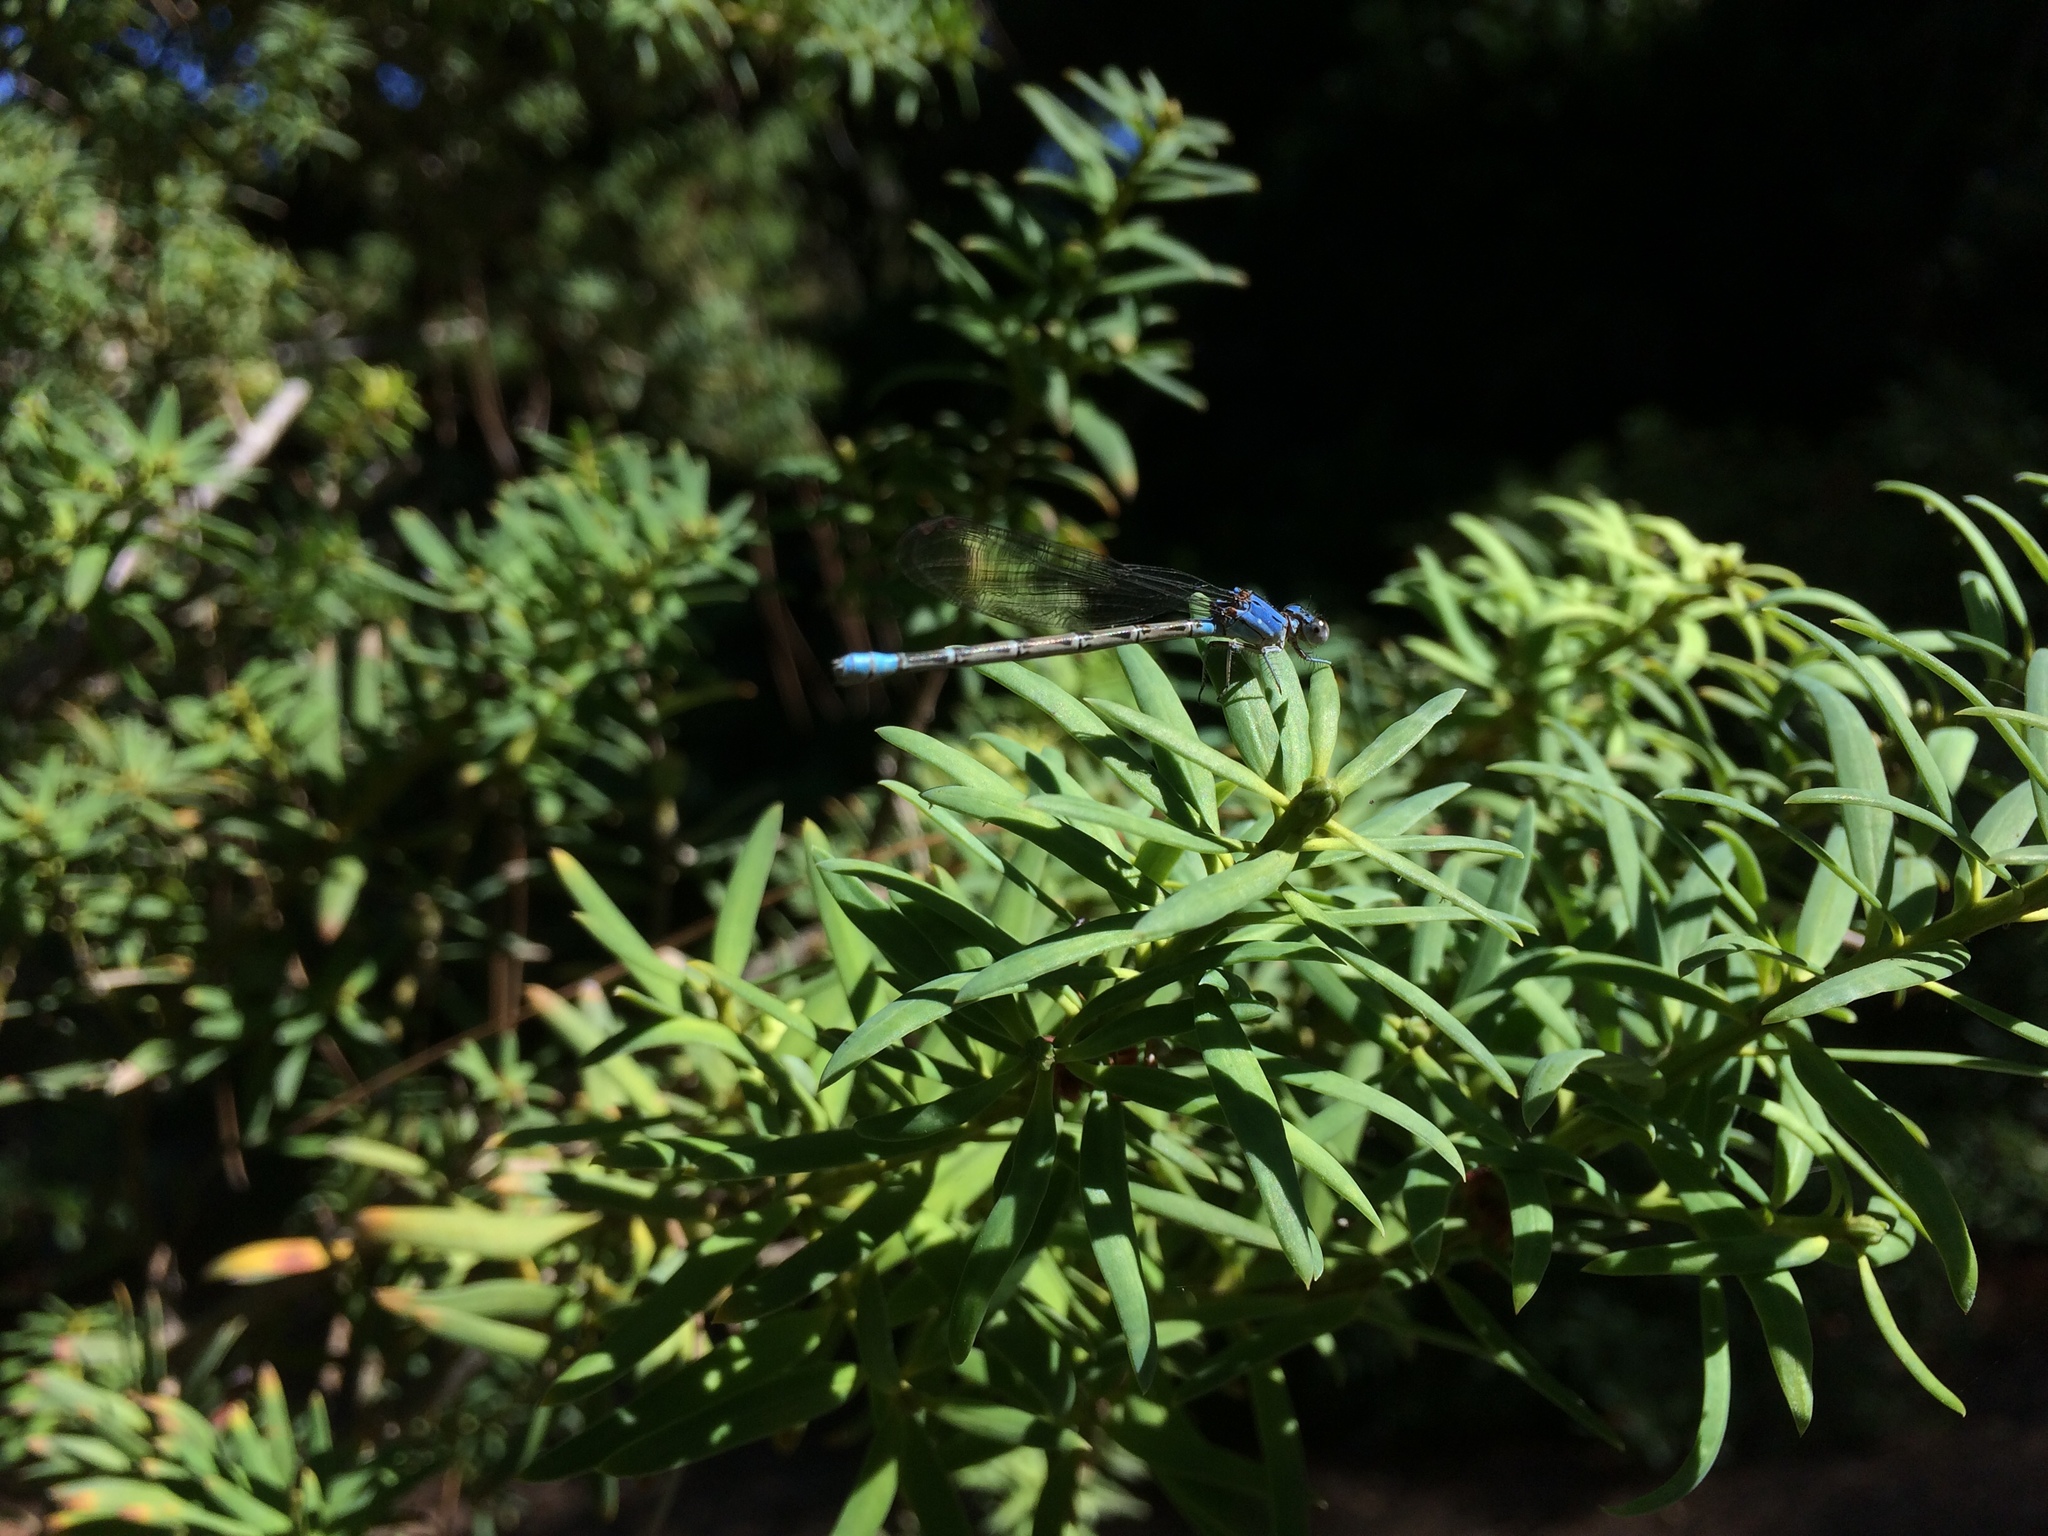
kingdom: Animalia
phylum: Arthropoda
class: Insecta
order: Odonata
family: Coenagrionidae
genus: Argia
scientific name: Argia vivida
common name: Vivid dancer
